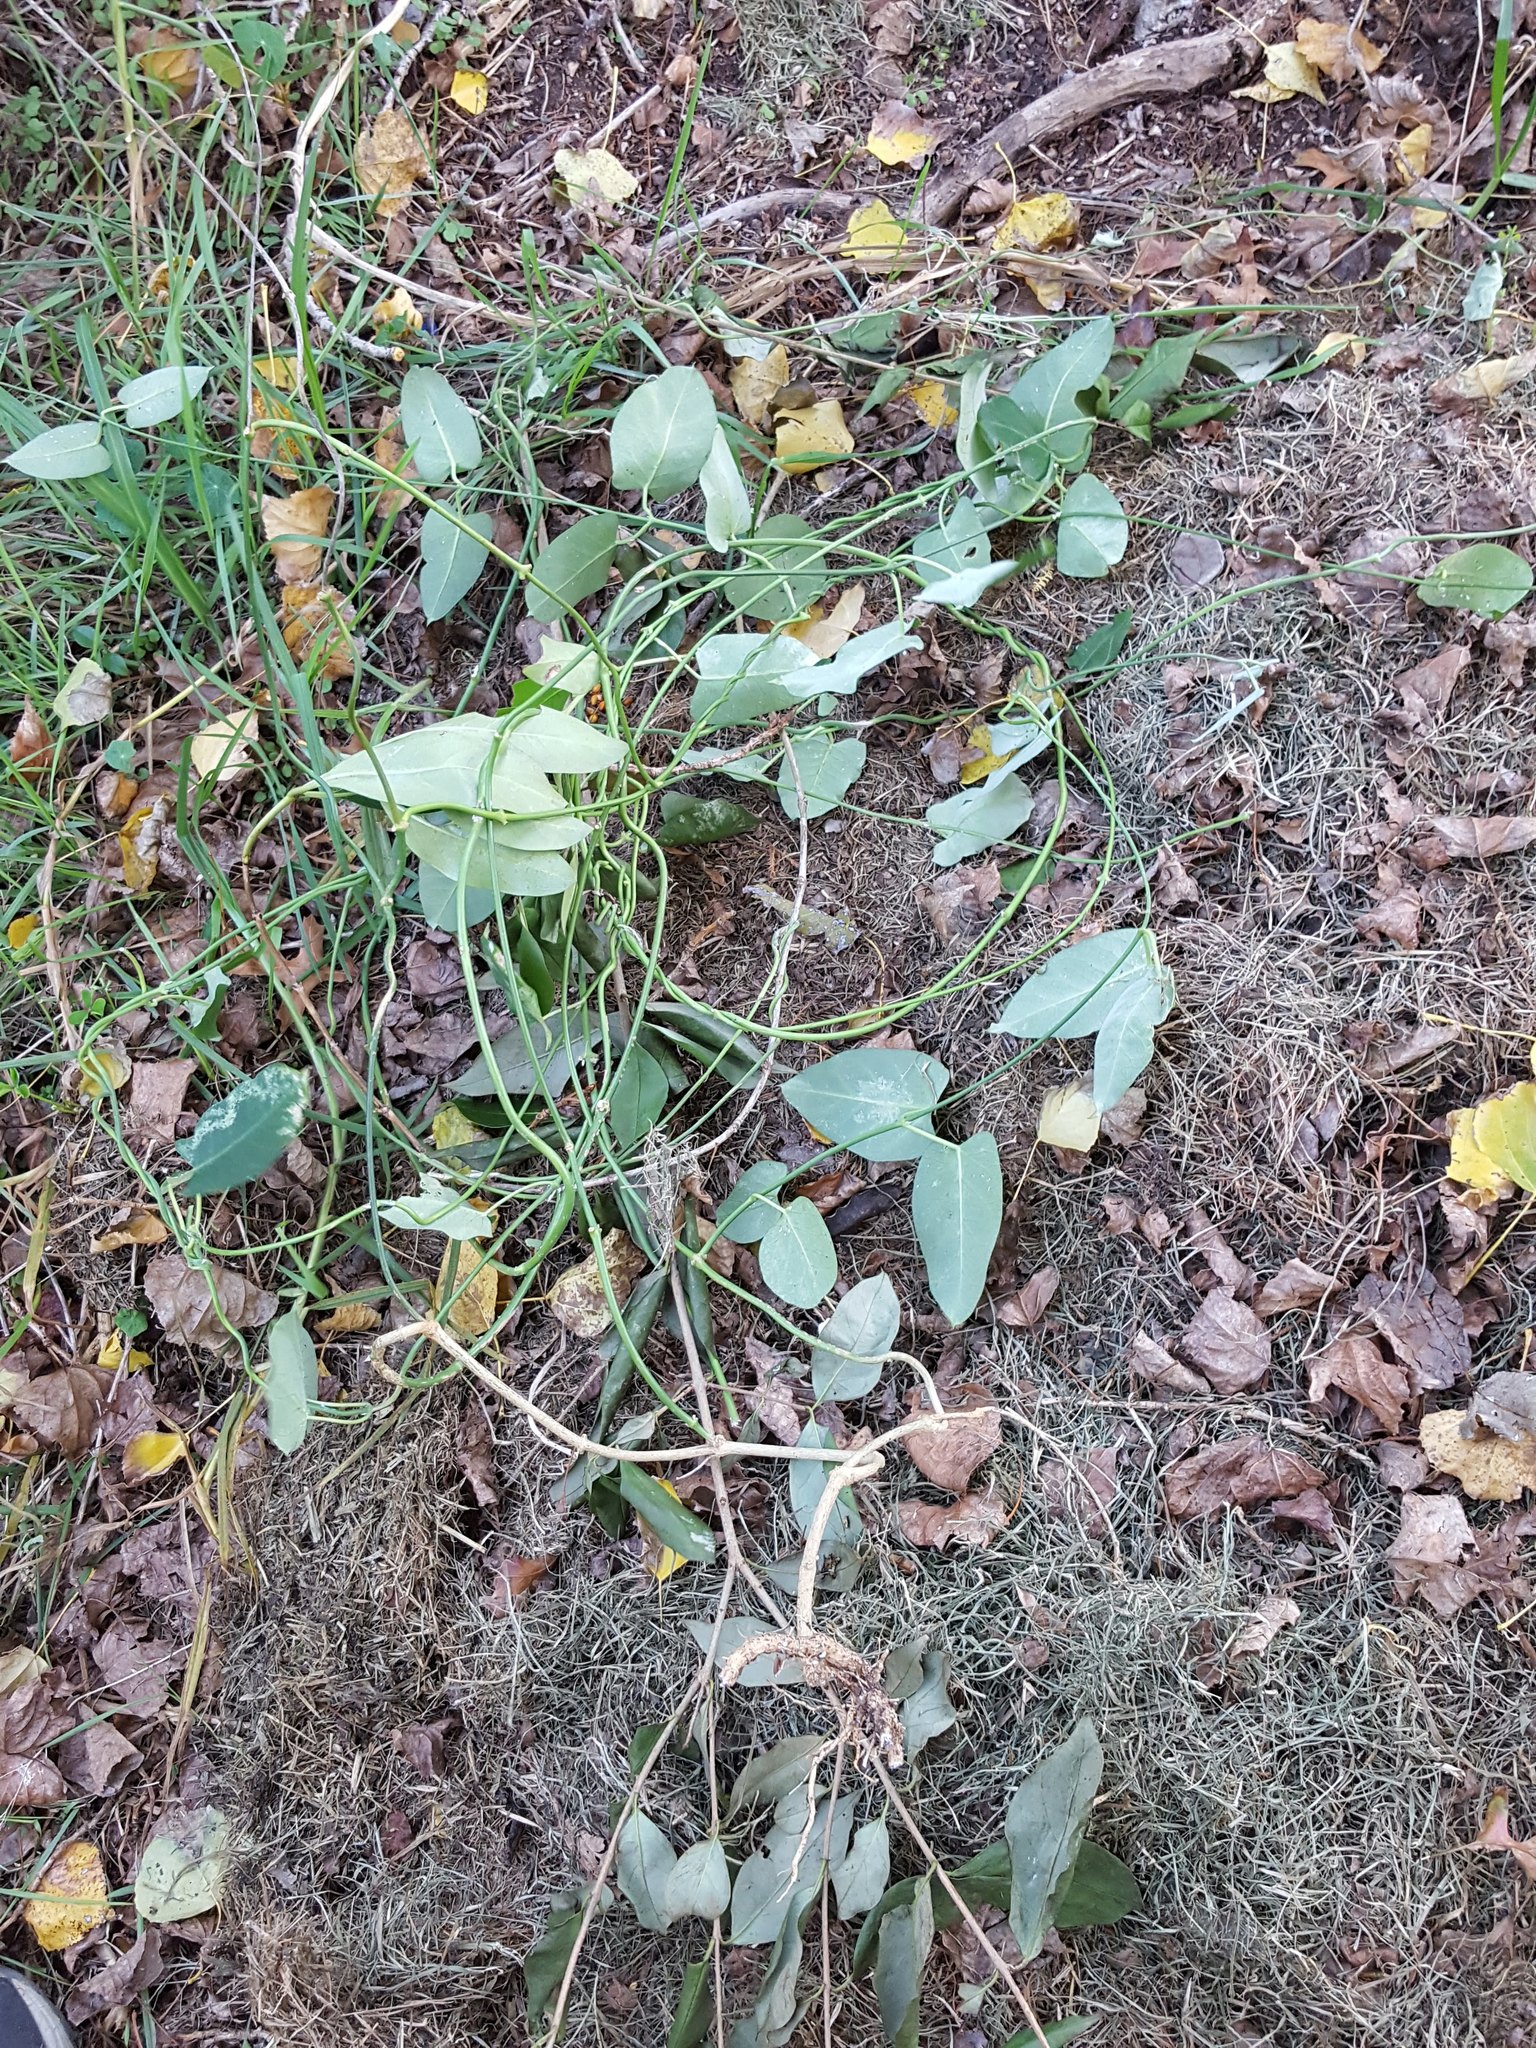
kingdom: Plantae
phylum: Tracheophyta
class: Magnoliopsida
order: Gentianales
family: Apocynaceae
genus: Araujia
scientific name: Araujia sericifera
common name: White bladderflower
